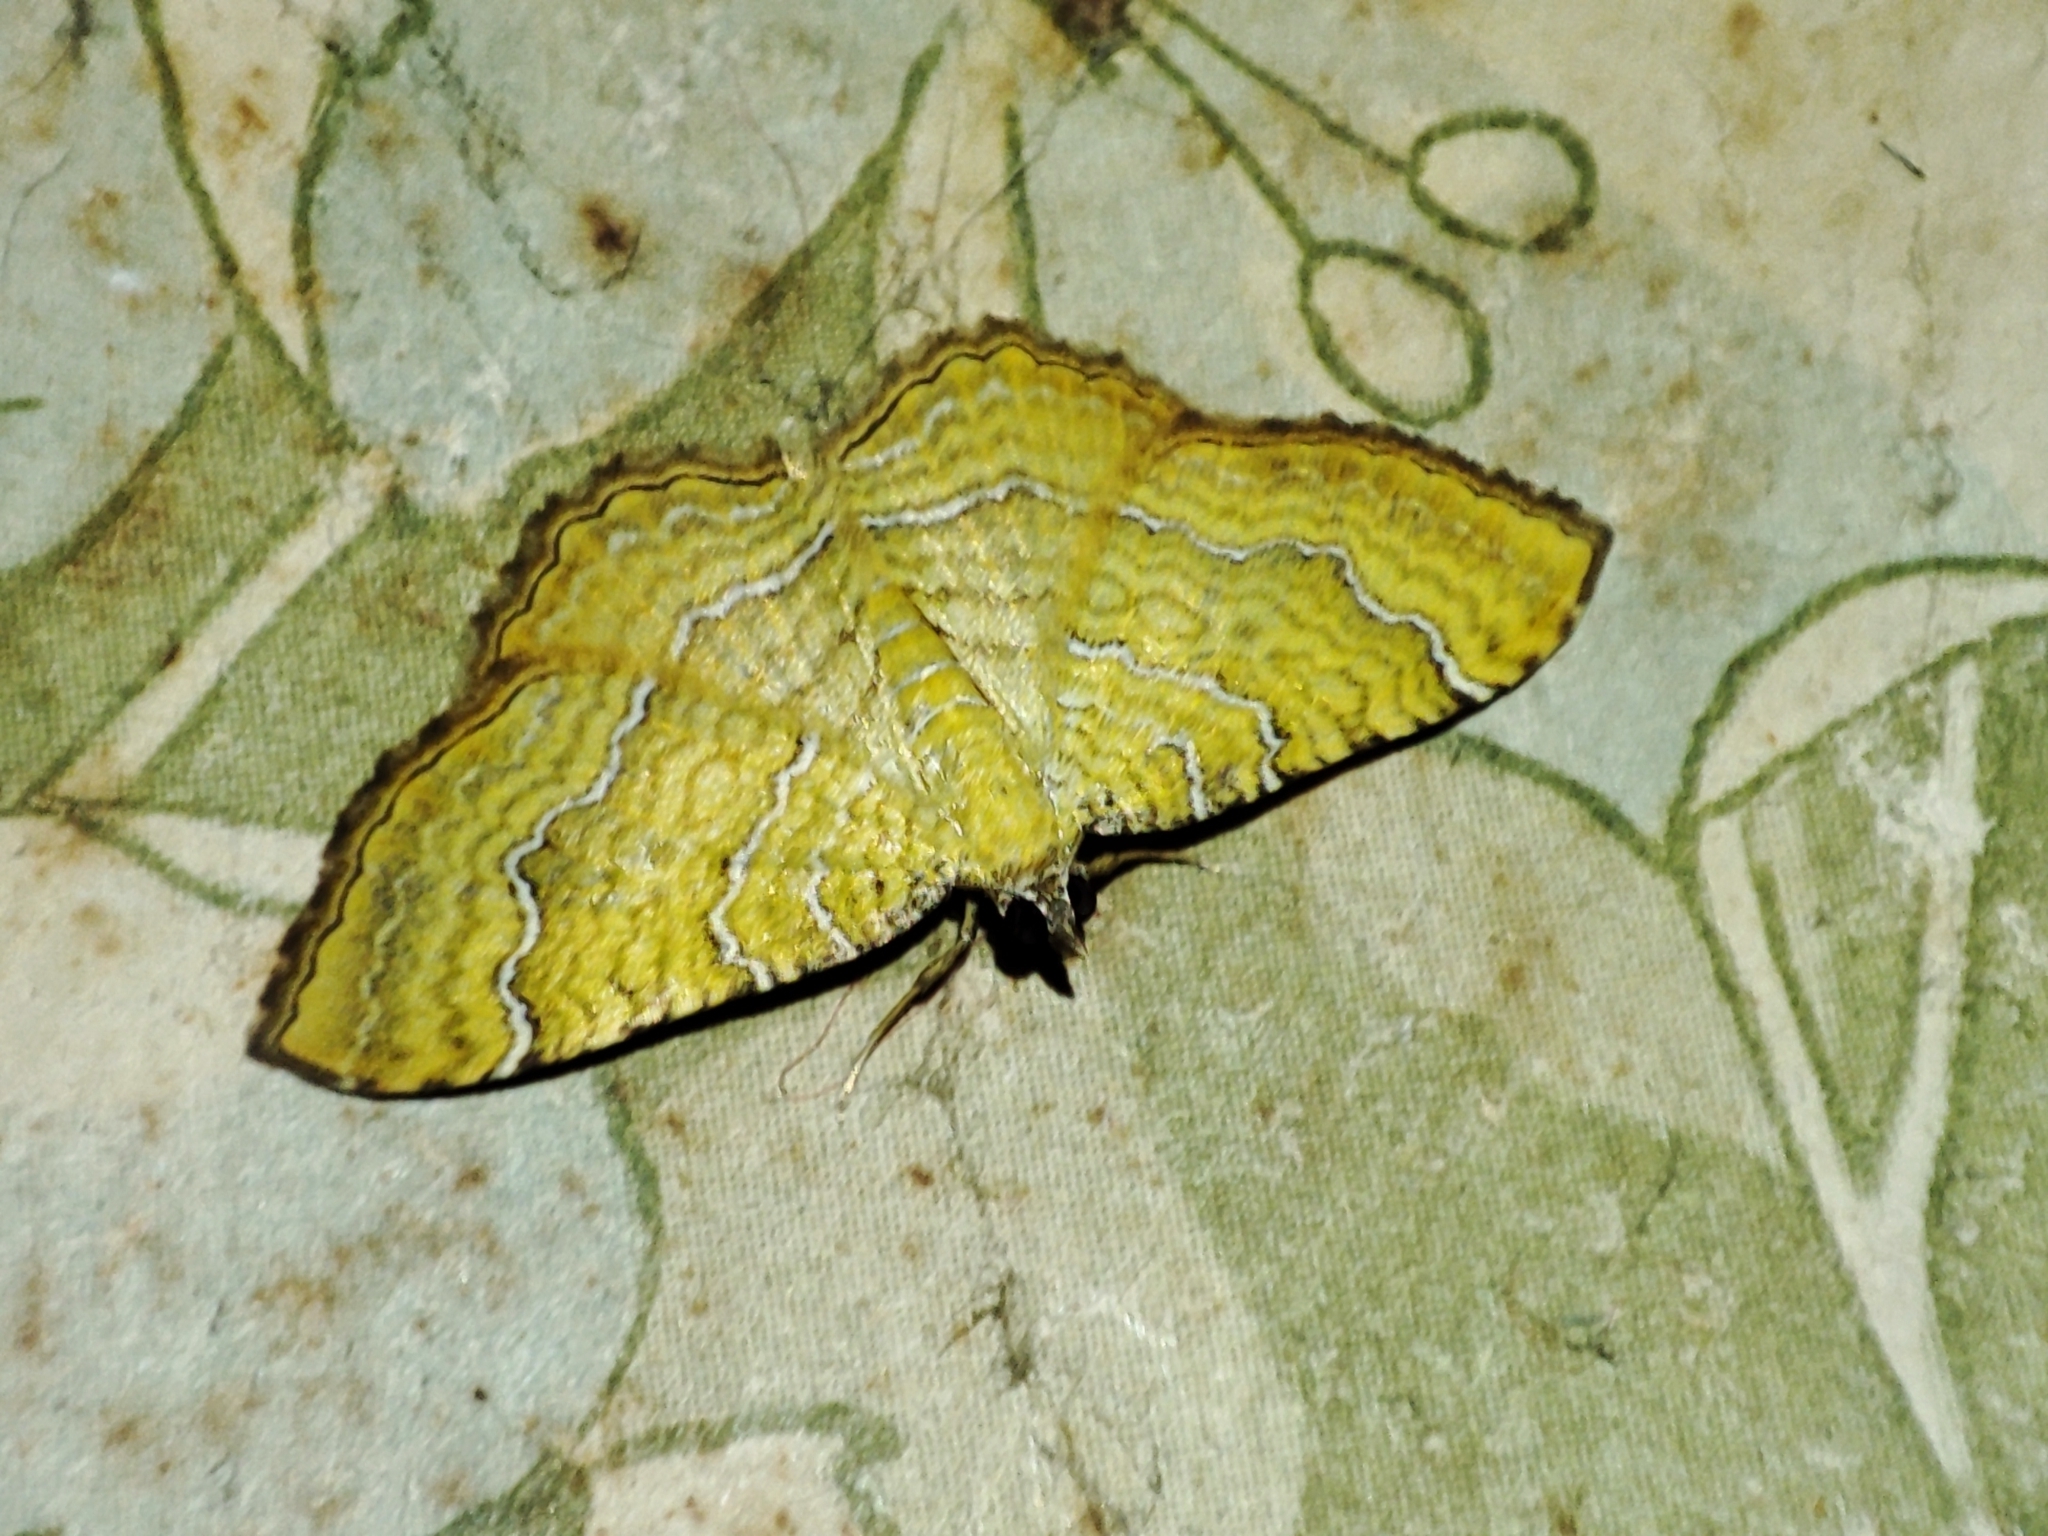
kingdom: Animalia
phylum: Arthropoda
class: Insecta
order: Lepidoptera
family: Geometridae
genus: Camptogramma
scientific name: Camptogramma bilineata
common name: Yellow shell
